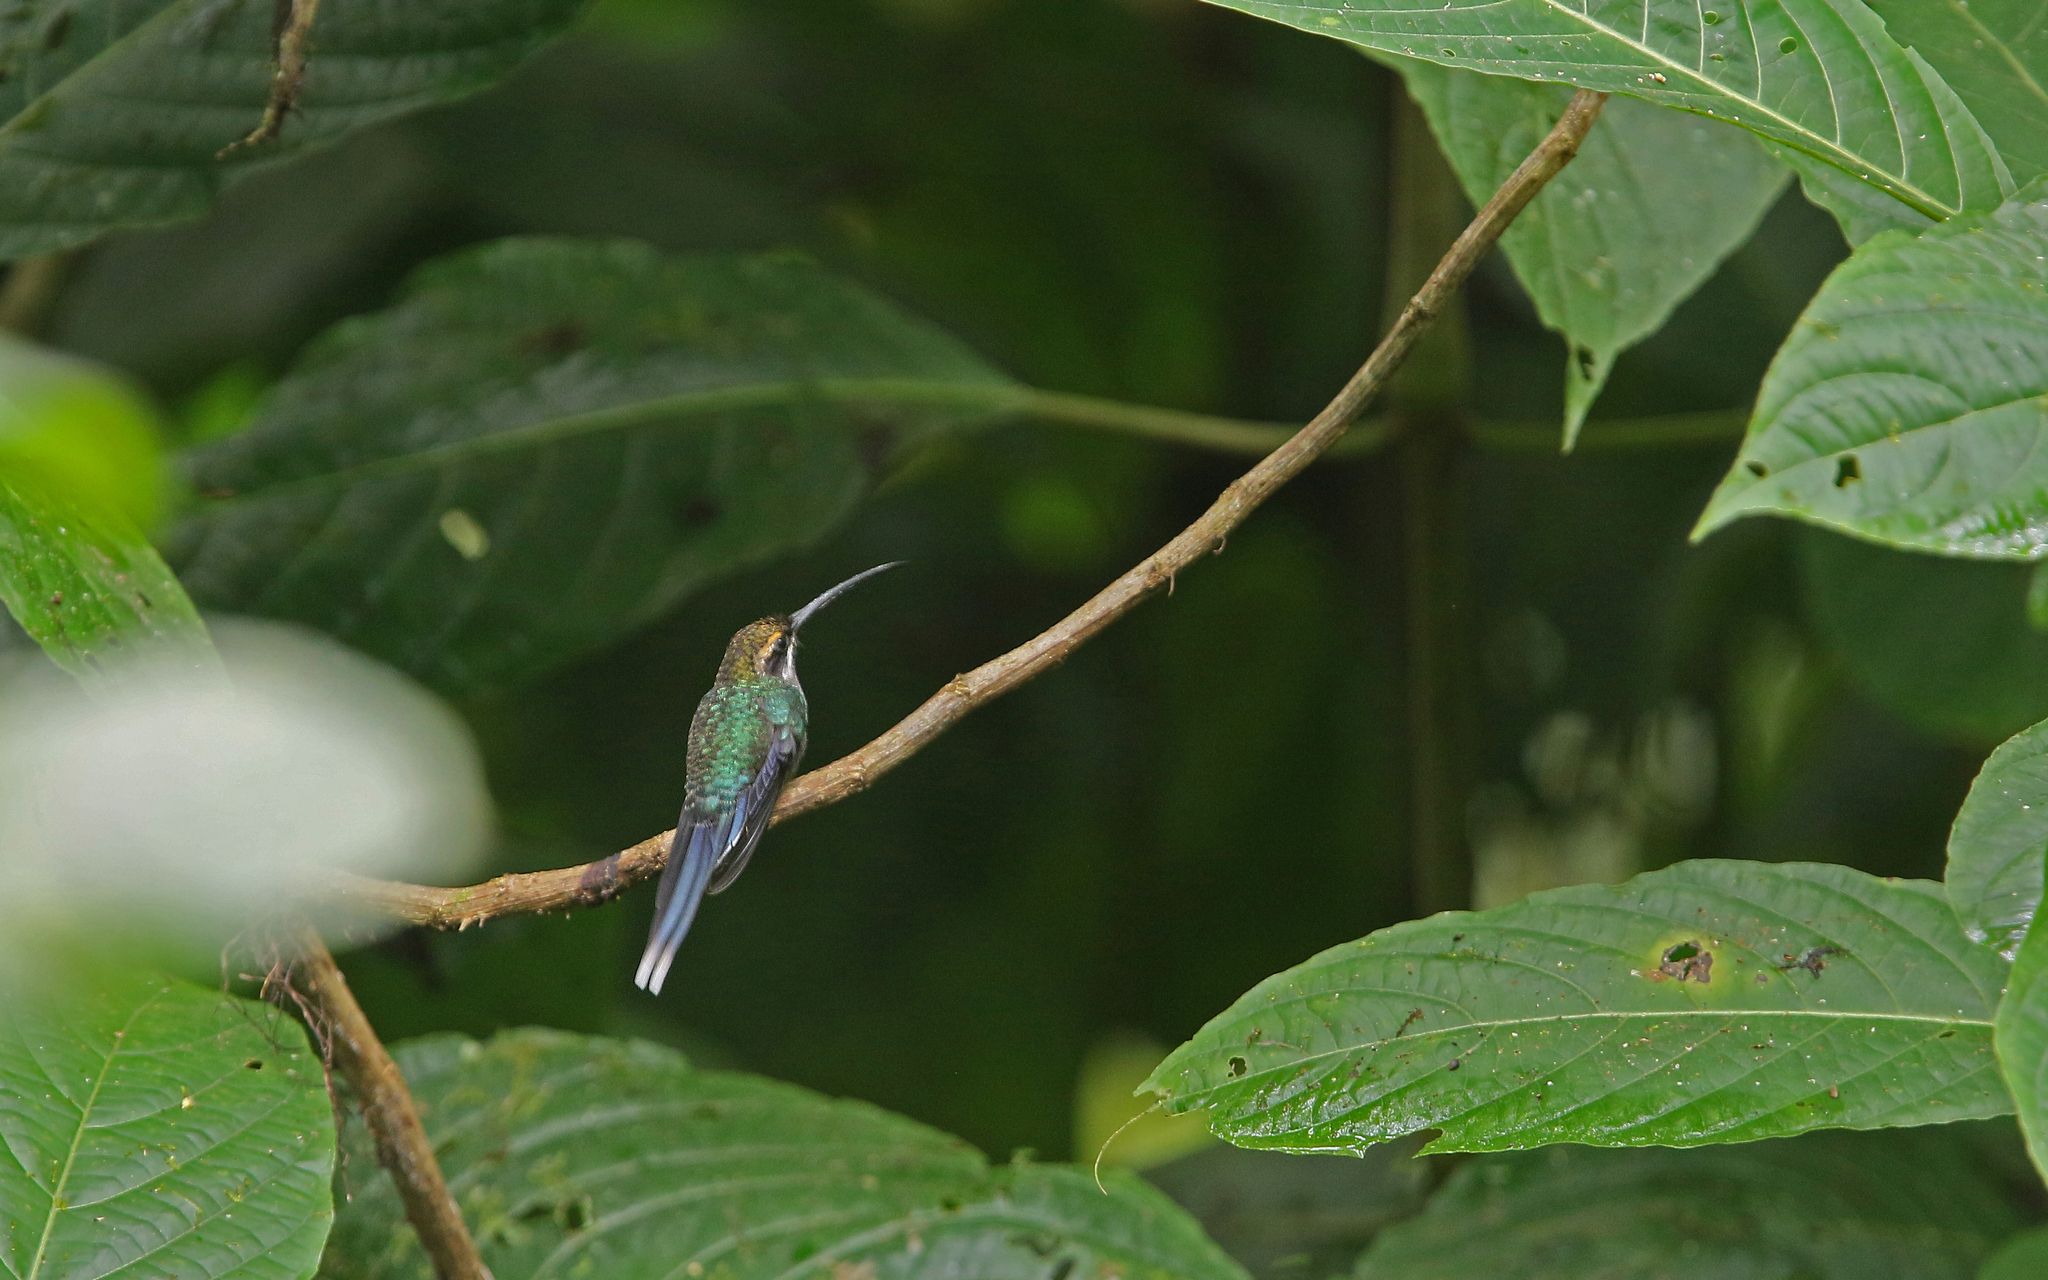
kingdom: Animalia
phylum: Chordata
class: Aves
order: Apodiformes
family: Trochilidae
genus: Phaethornis
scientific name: Phaethornis yaruqui
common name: White-whiskered hermit
